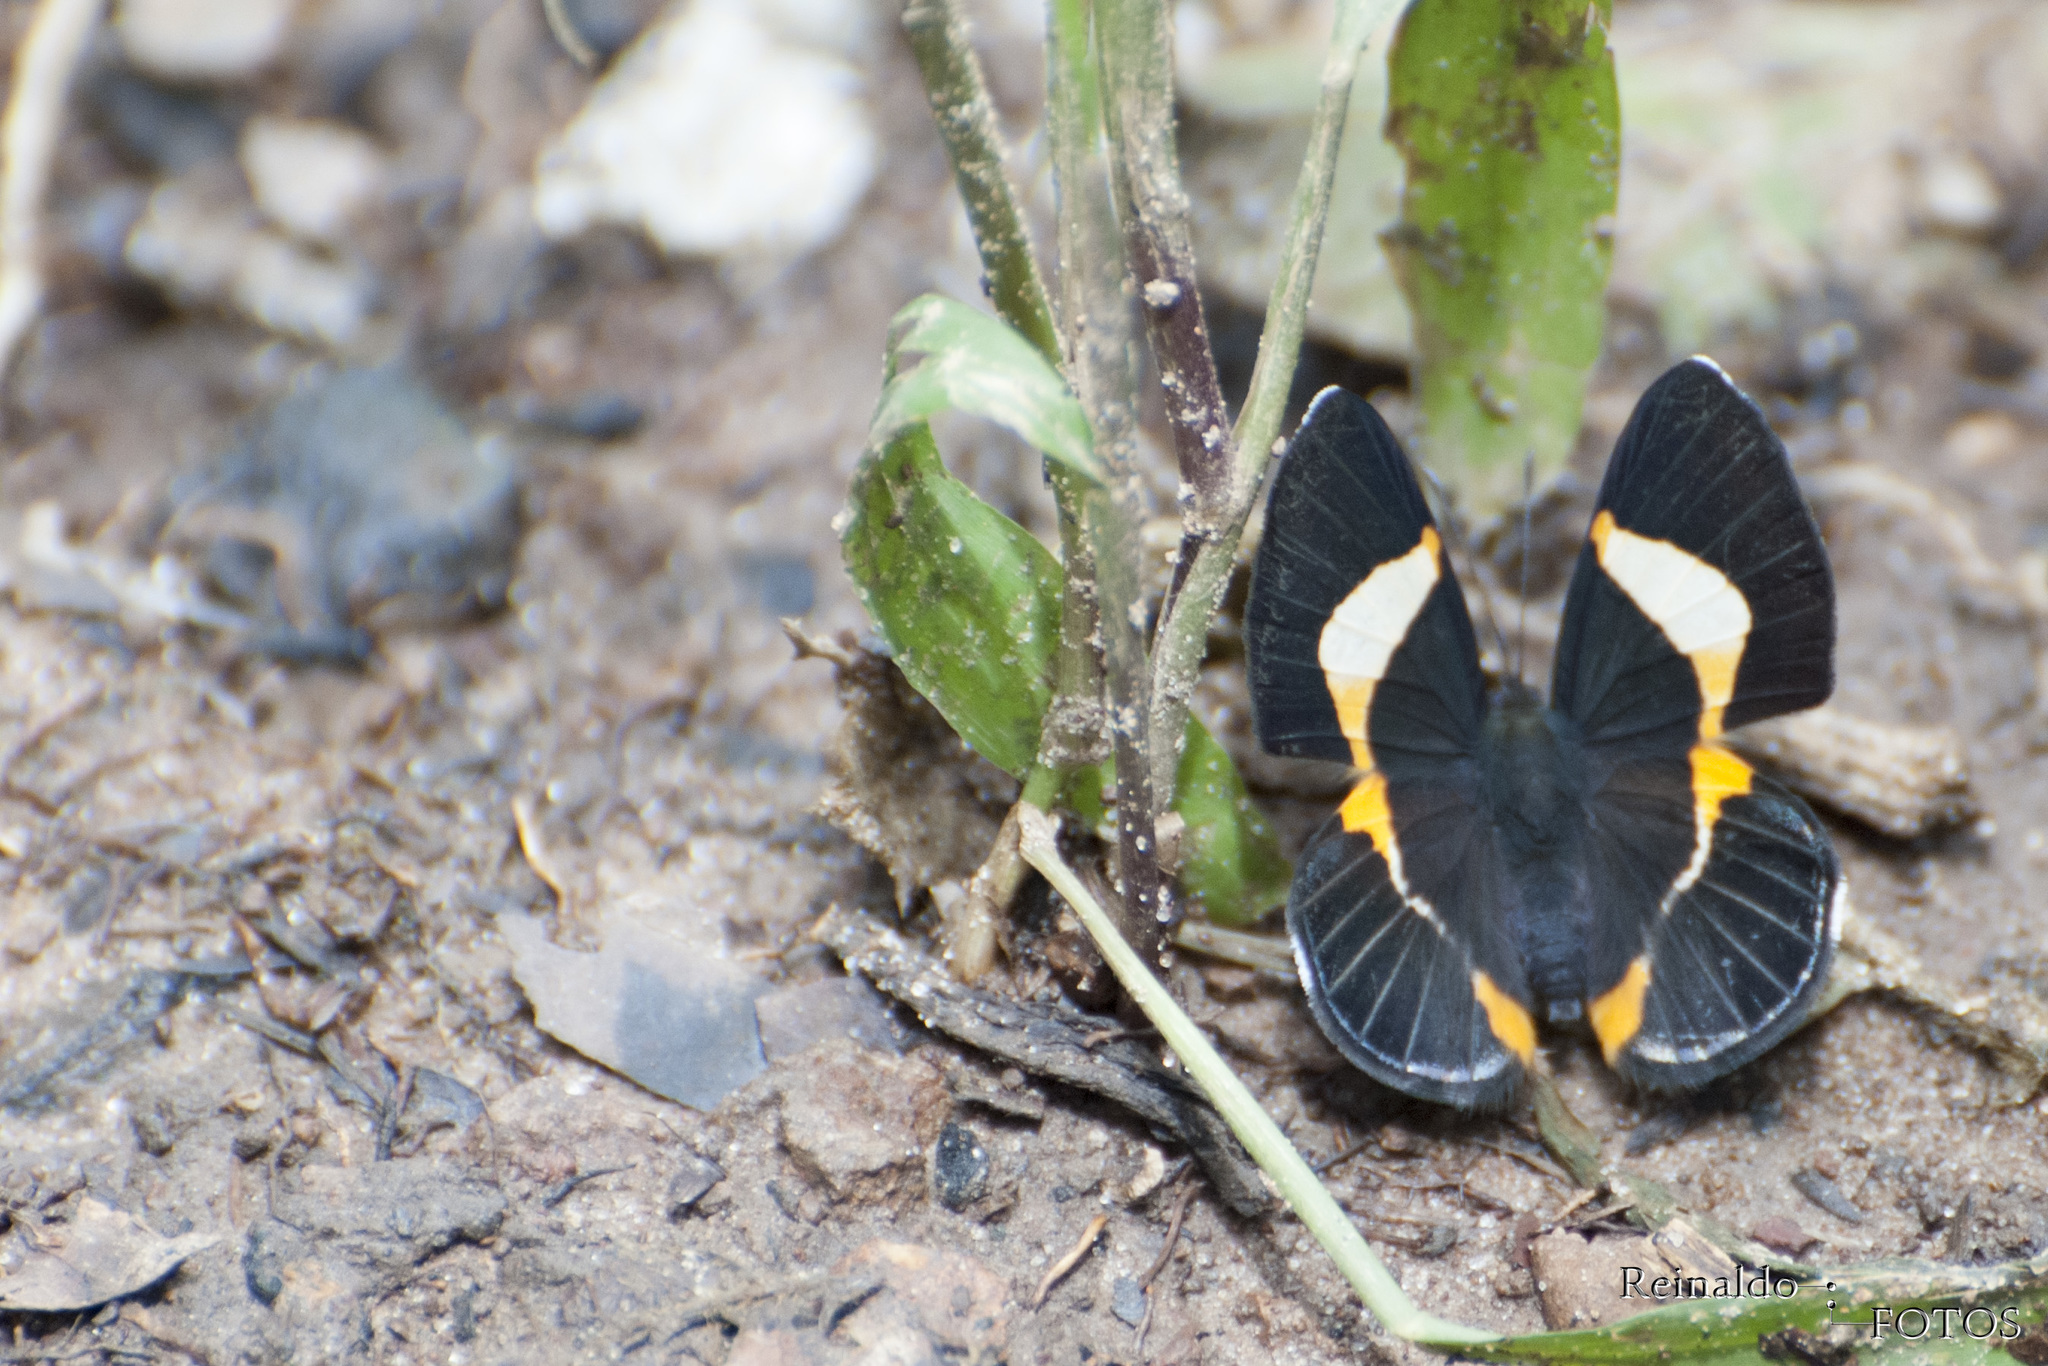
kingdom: Animalia
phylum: Arthropoda
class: Insecta
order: Lepidoptera
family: Riodinidae
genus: Notheme
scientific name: Notheme eumeus
